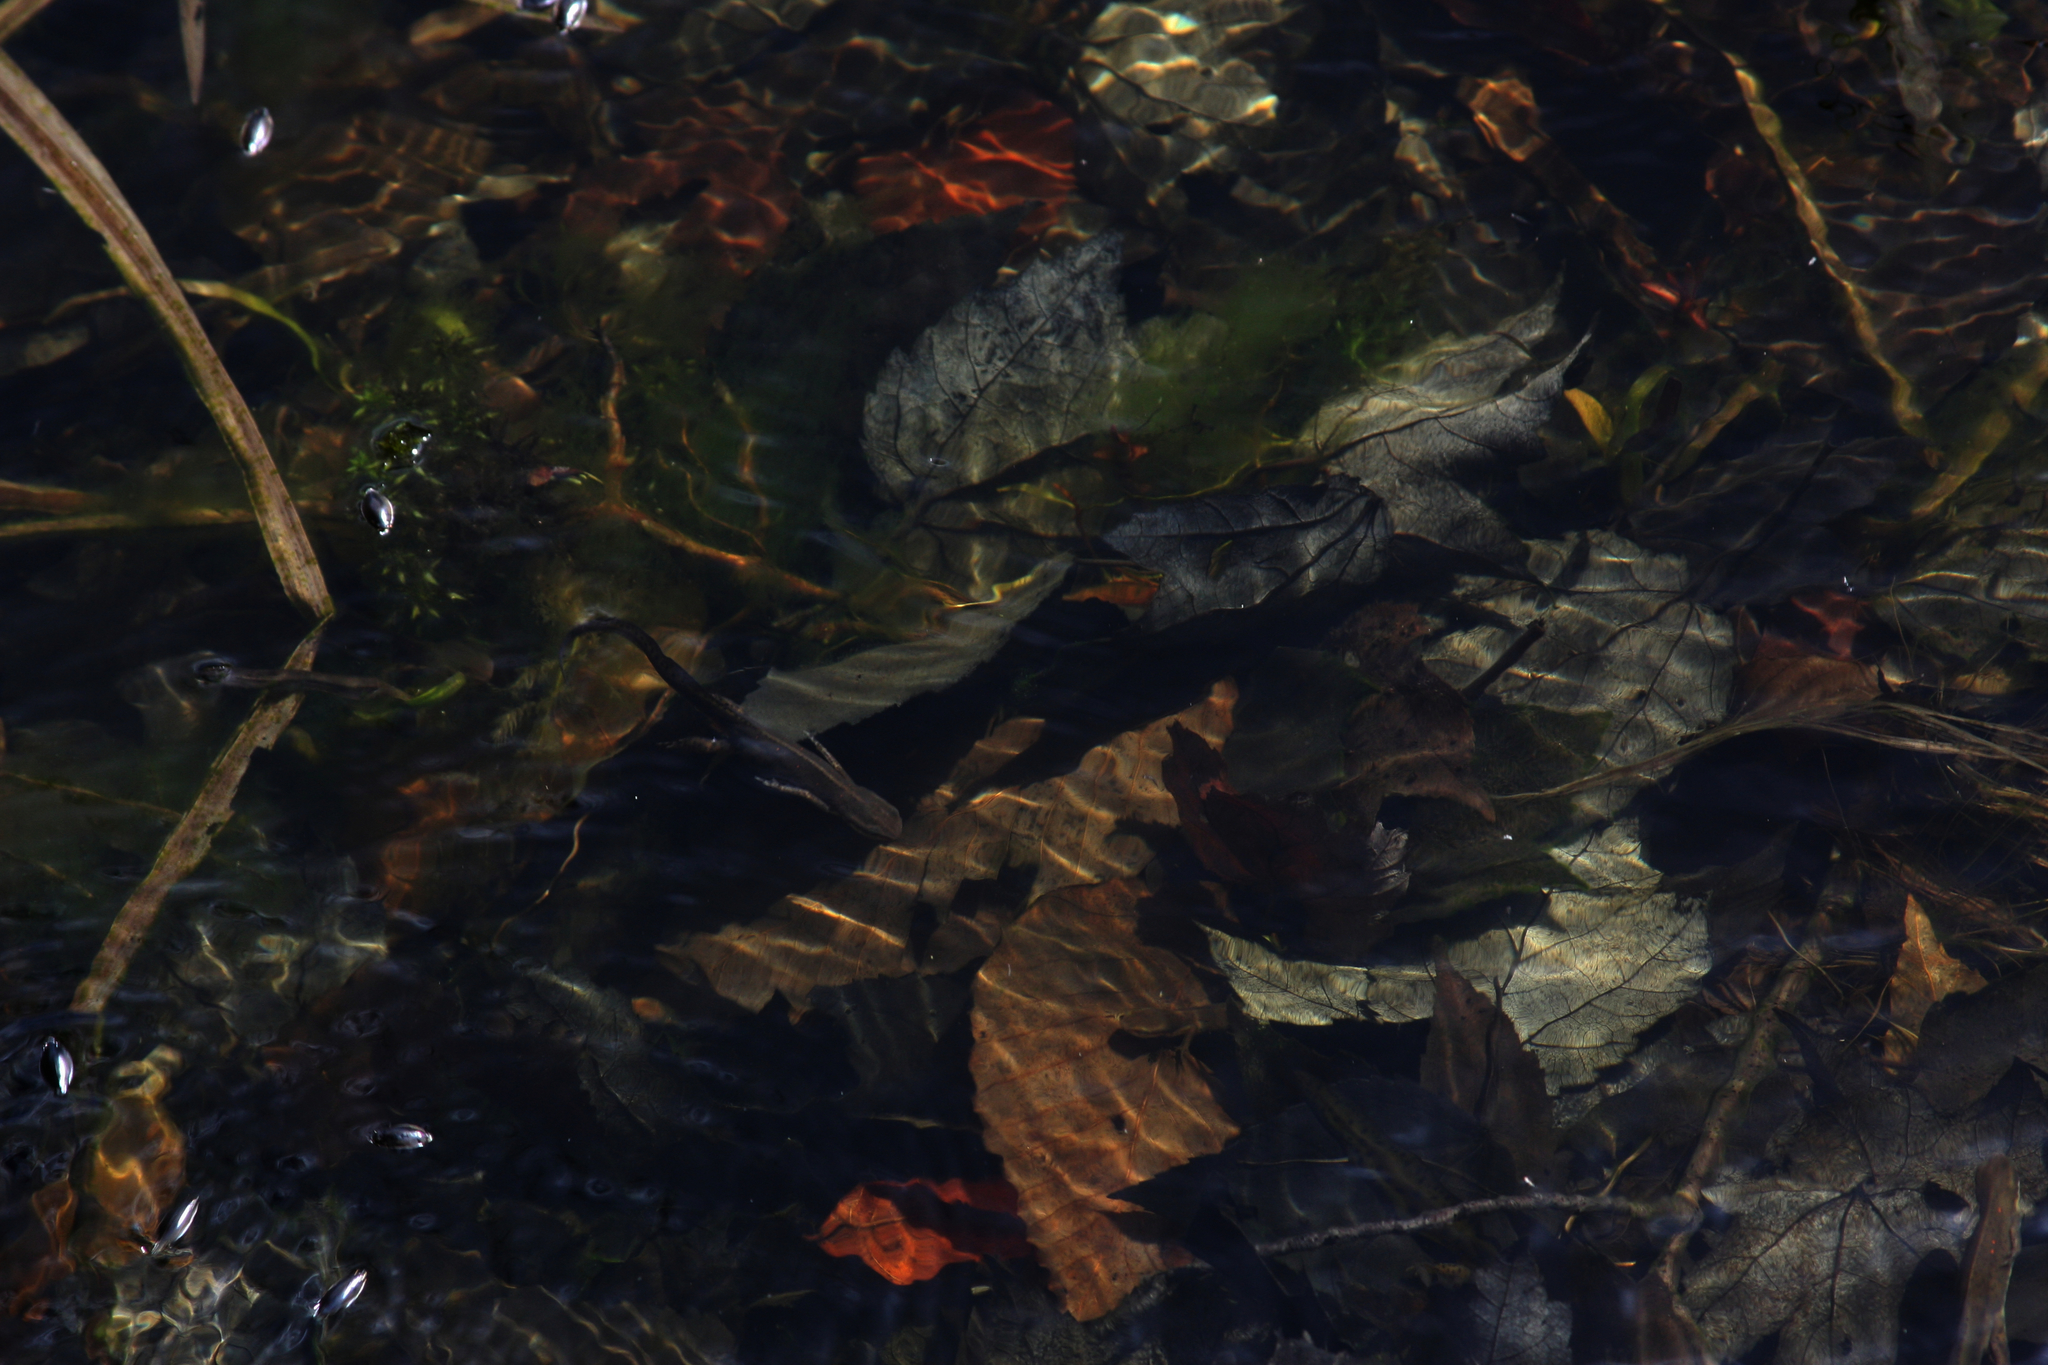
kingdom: Animalia
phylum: Chordata
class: Amphibia
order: Caudata
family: Salamandridae
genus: Notophthalmus
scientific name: Notophthalmus viridescens
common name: Eastern newt
